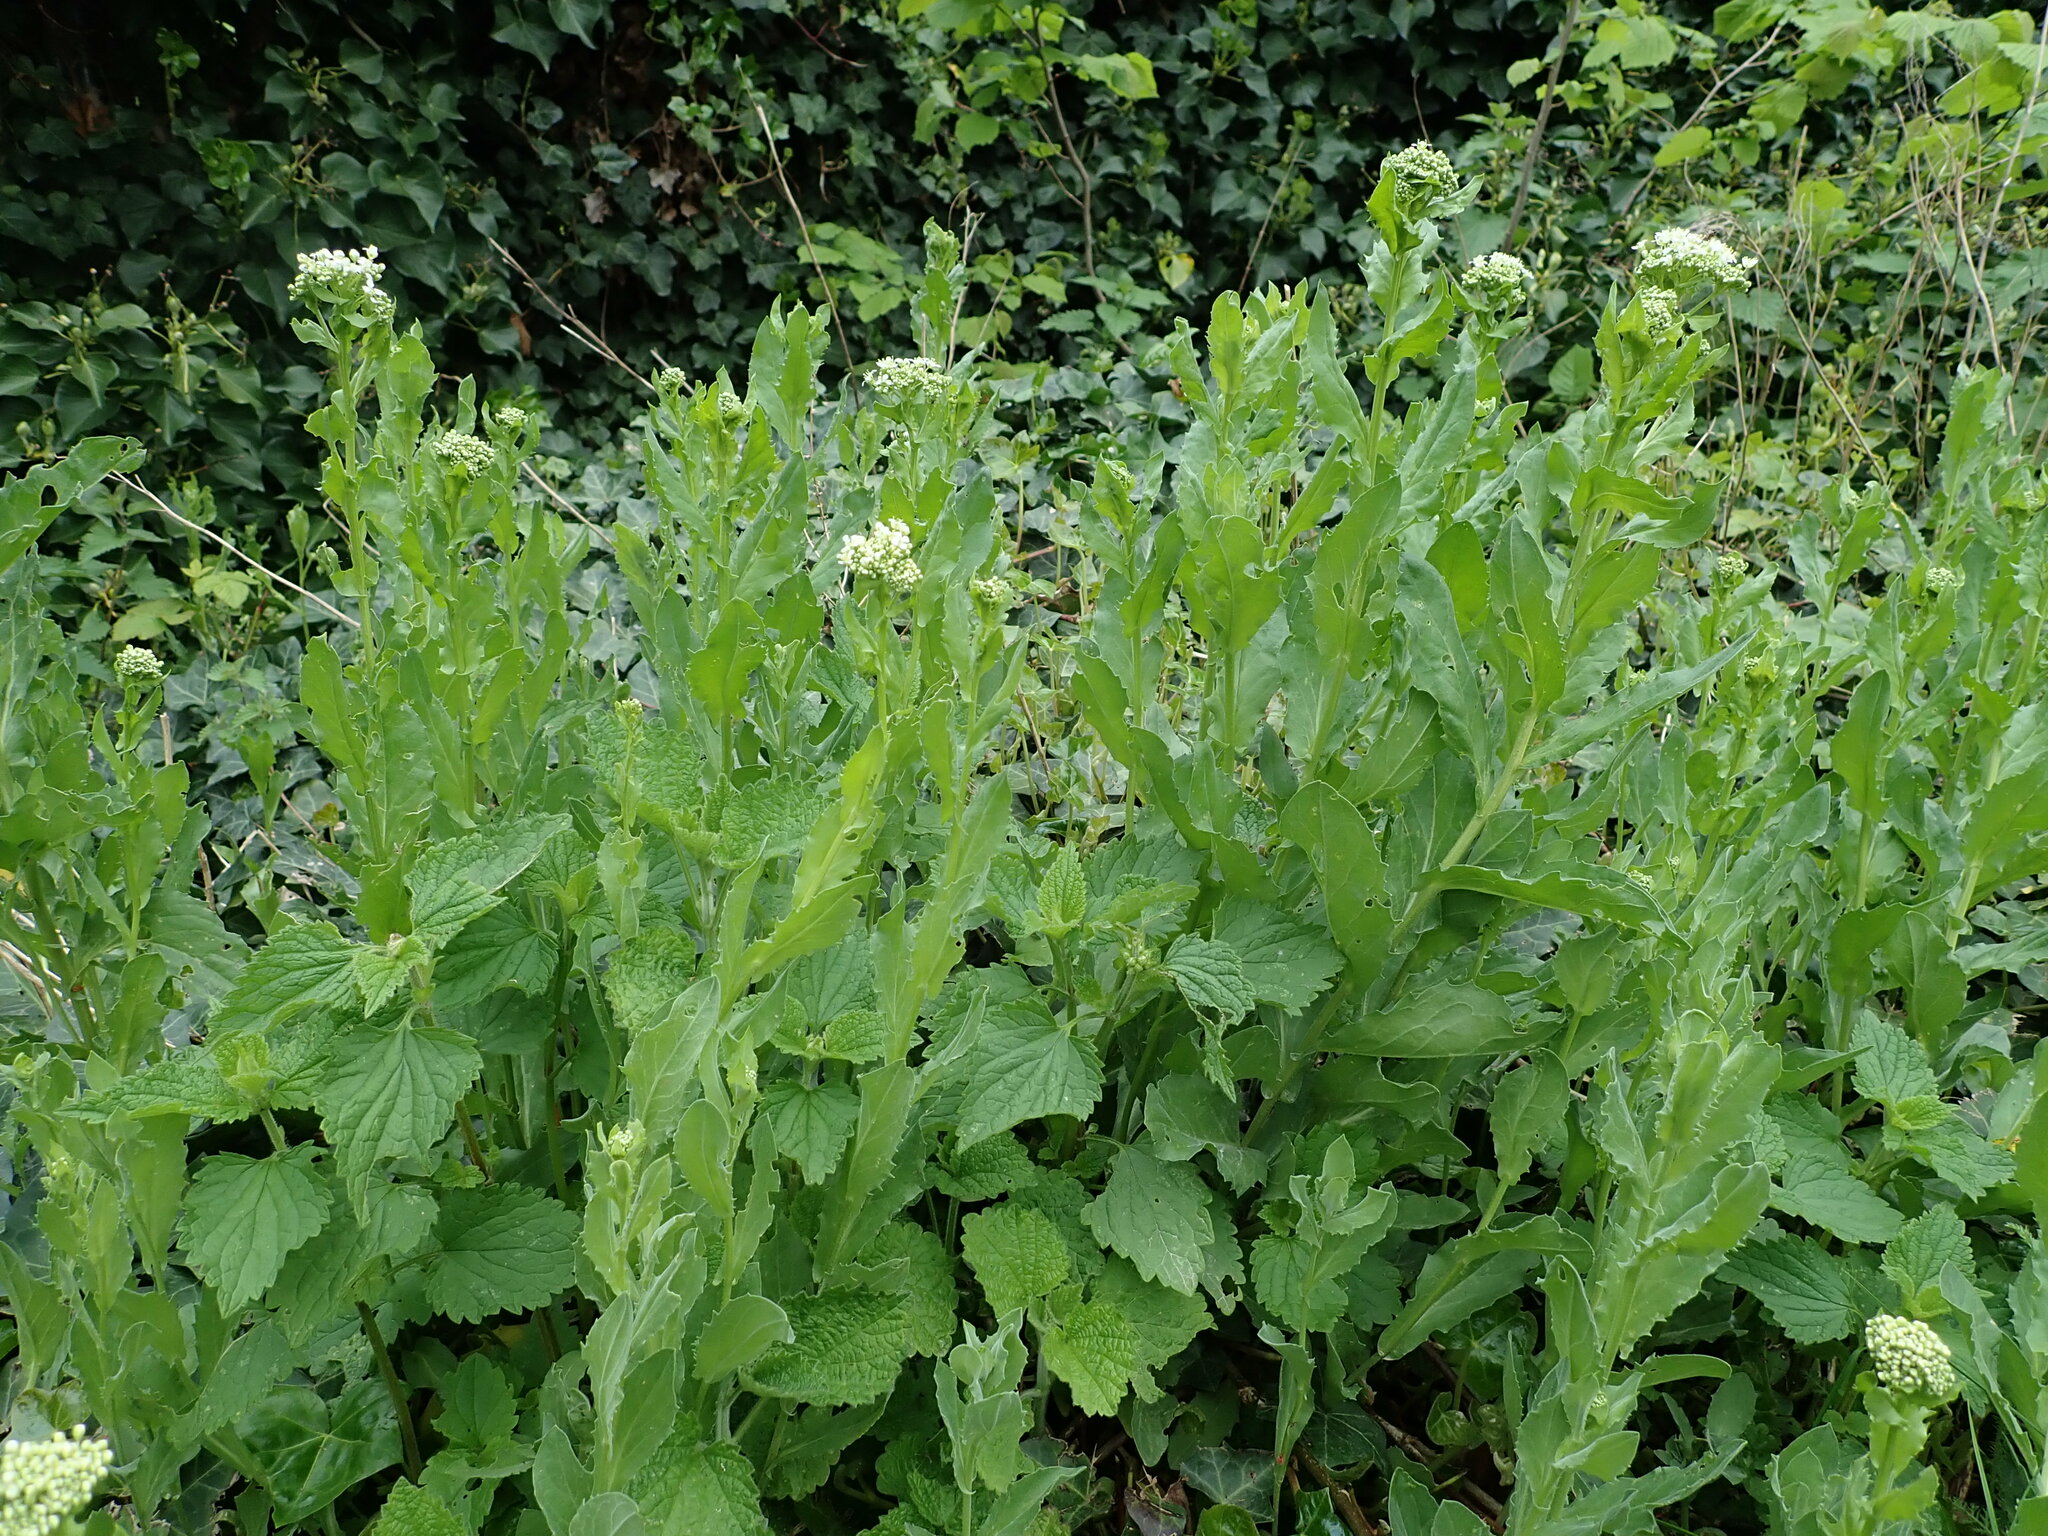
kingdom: Plantae
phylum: Tracheophyta
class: Magnoliopsida
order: Brassicales
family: Brassicaceae
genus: Lepidium
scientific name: Lepidium draba
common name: Hoary cress
